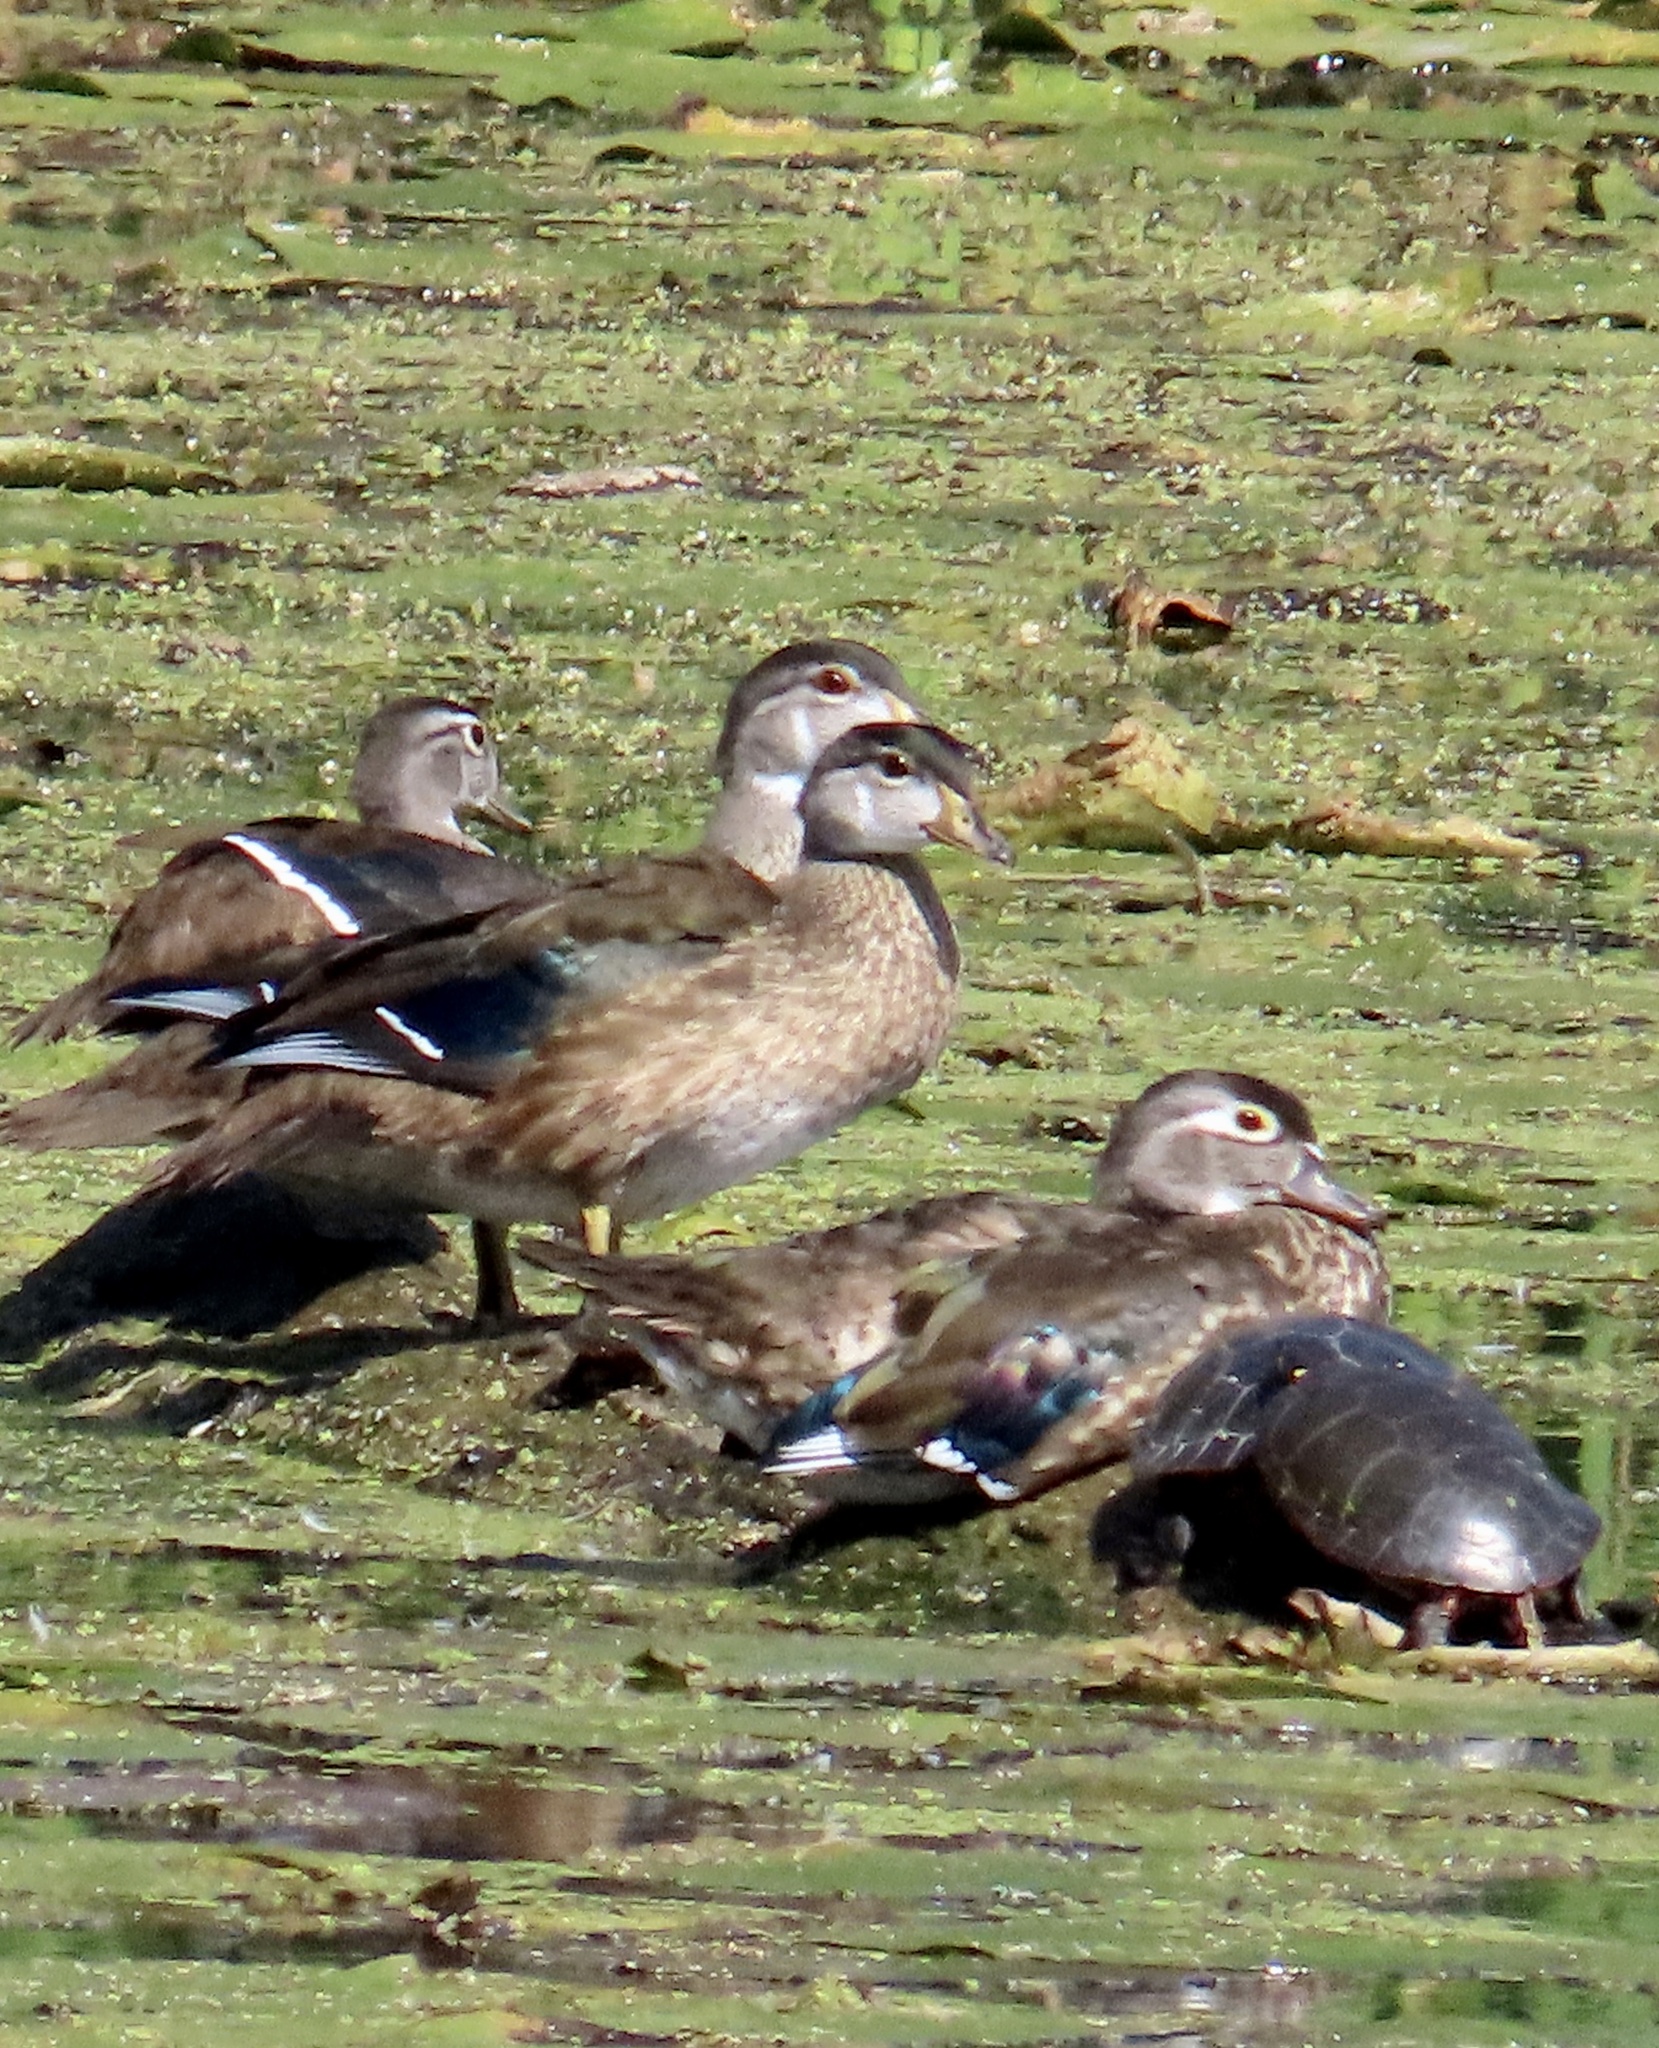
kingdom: Animalia
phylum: Chordata
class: Aves
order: Anseriformes
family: Anatidae
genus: Aix
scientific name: Aix sponsa
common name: Wood duck
